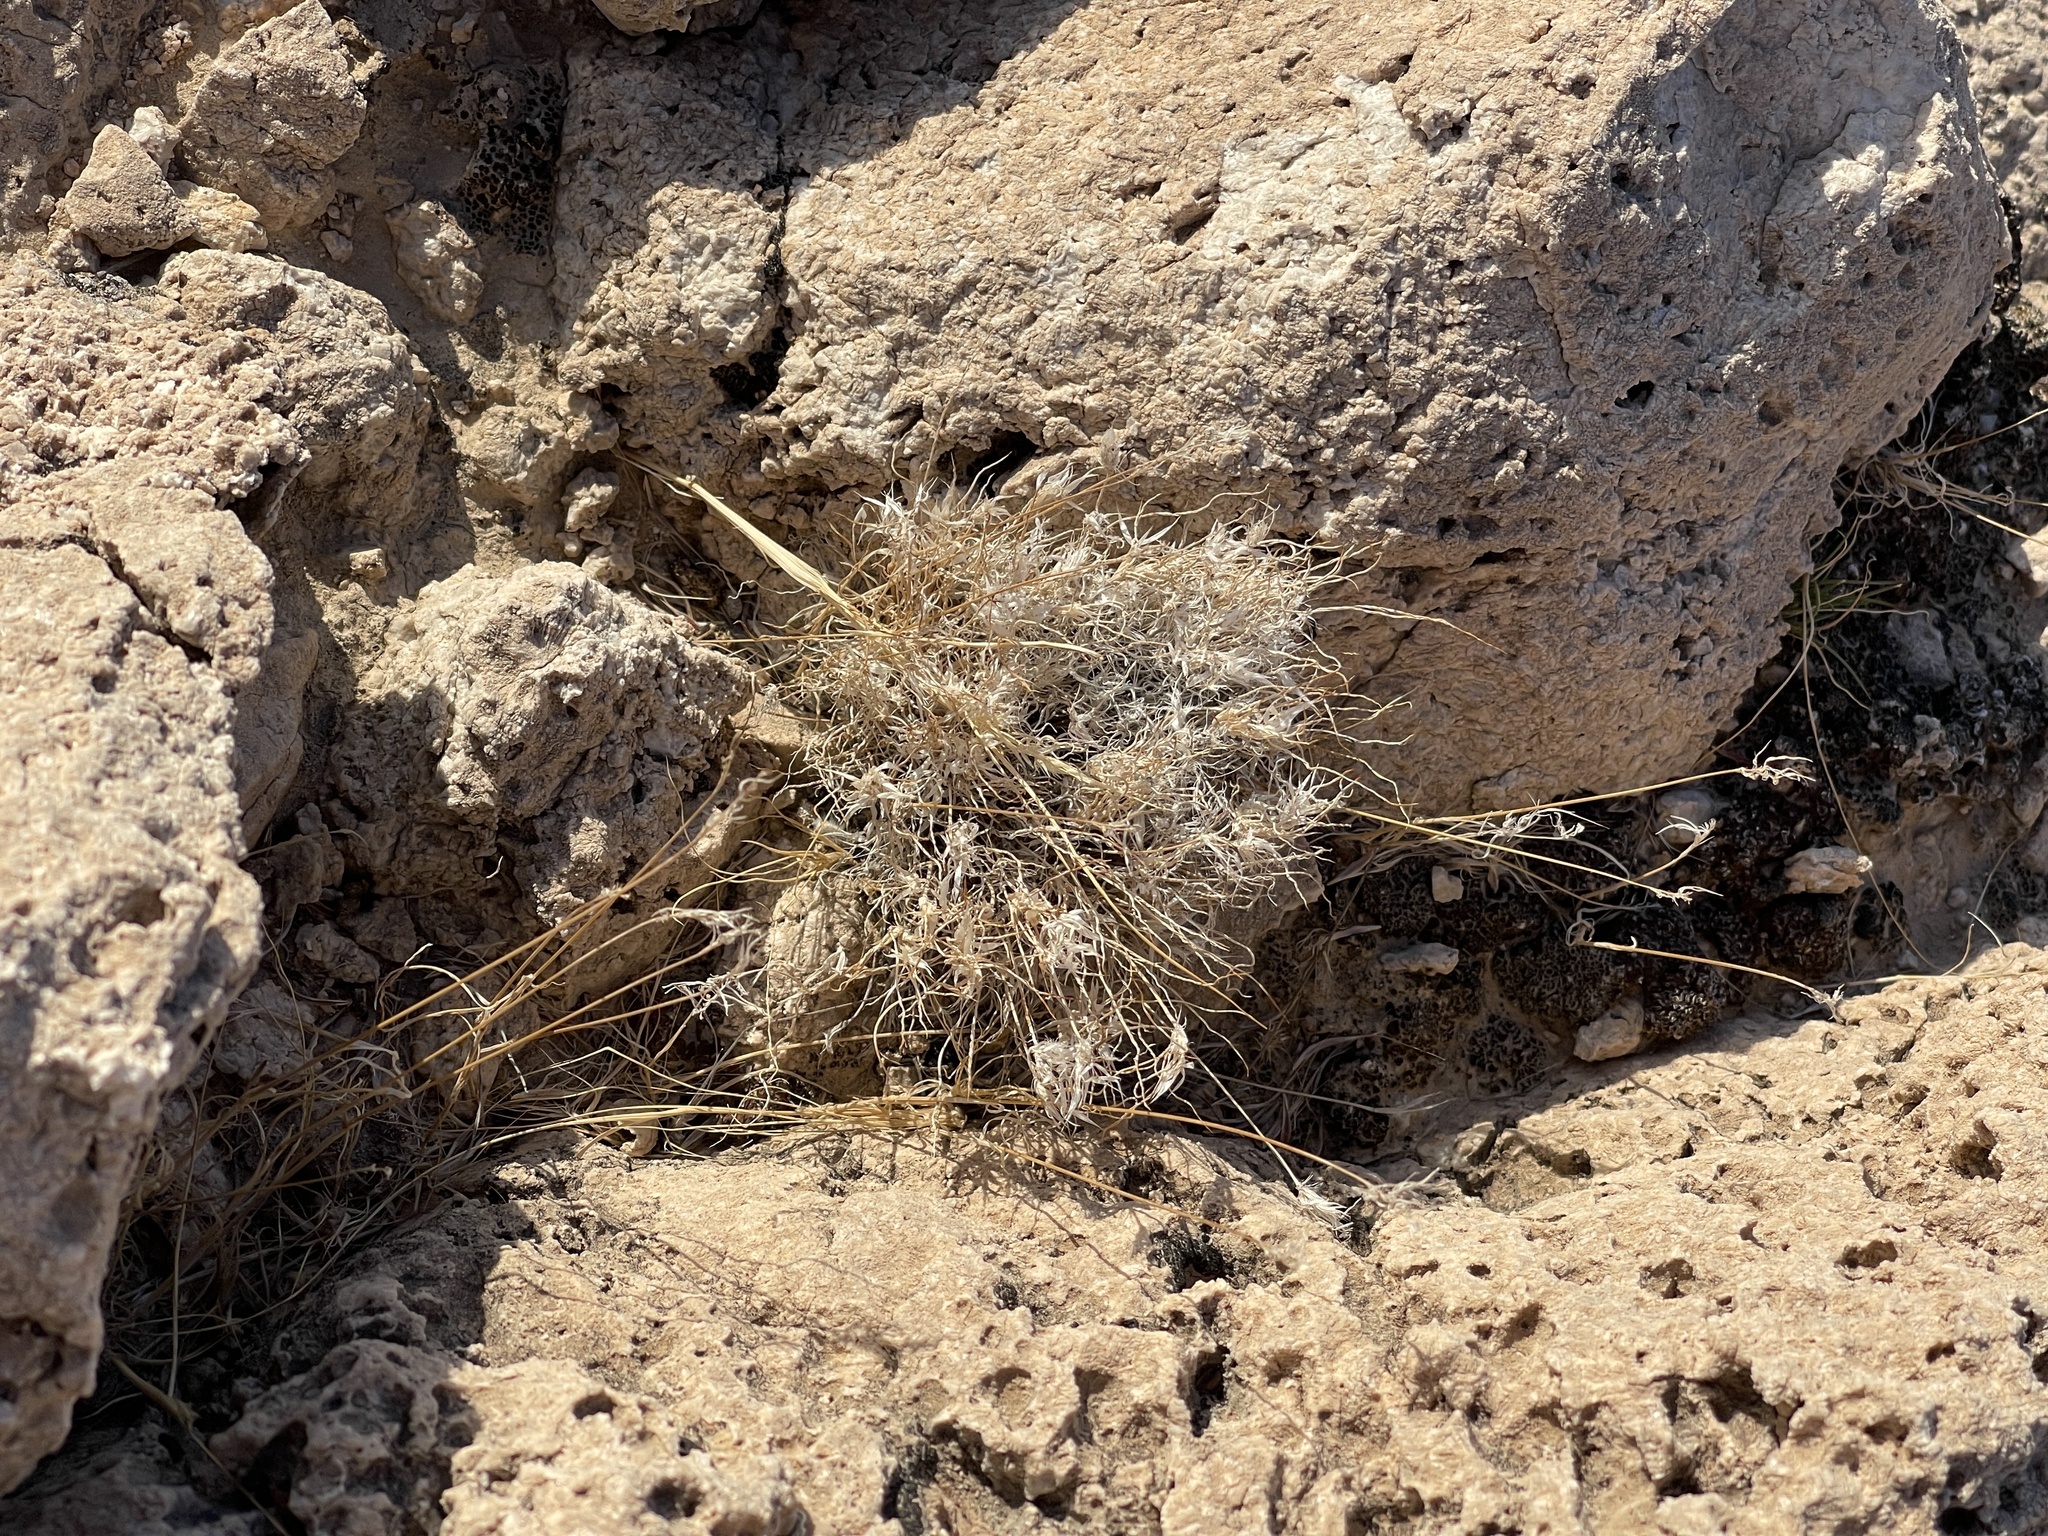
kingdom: Plantae
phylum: Tracheophyta
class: Liliopsida
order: Poales
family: Poaceae
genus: Dasyochloa
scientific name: Dasyochloa pulchella
